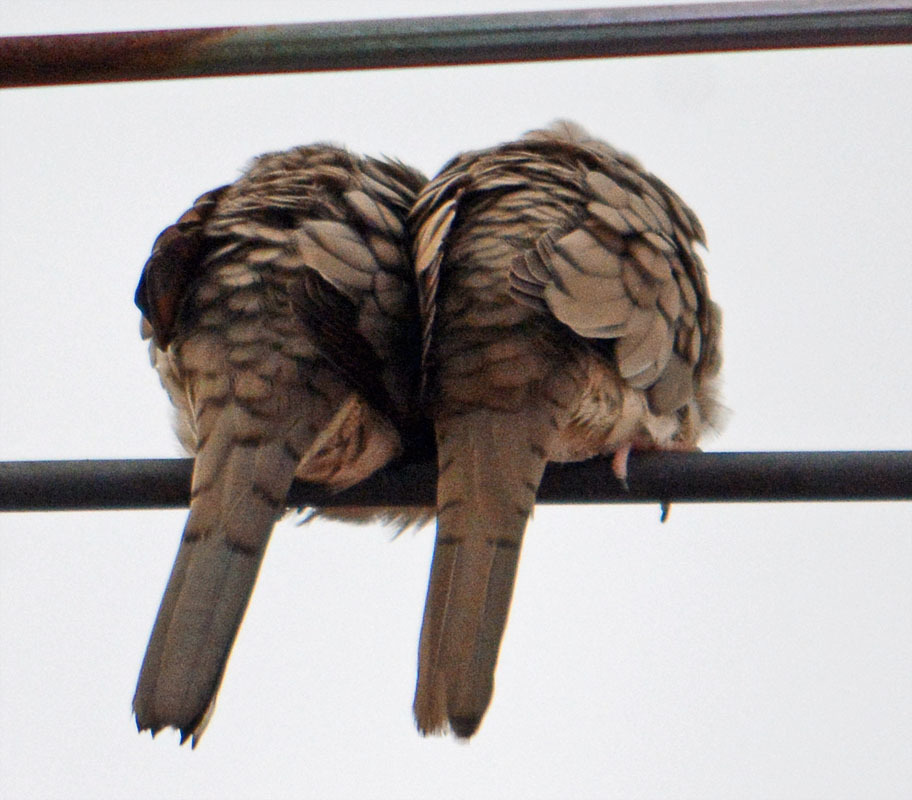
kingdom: Animalia
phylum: Chordata
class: Aves
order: Columbiformes
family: Columbidae
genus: Columbina
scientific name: Columbina inca
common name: Inca dove
